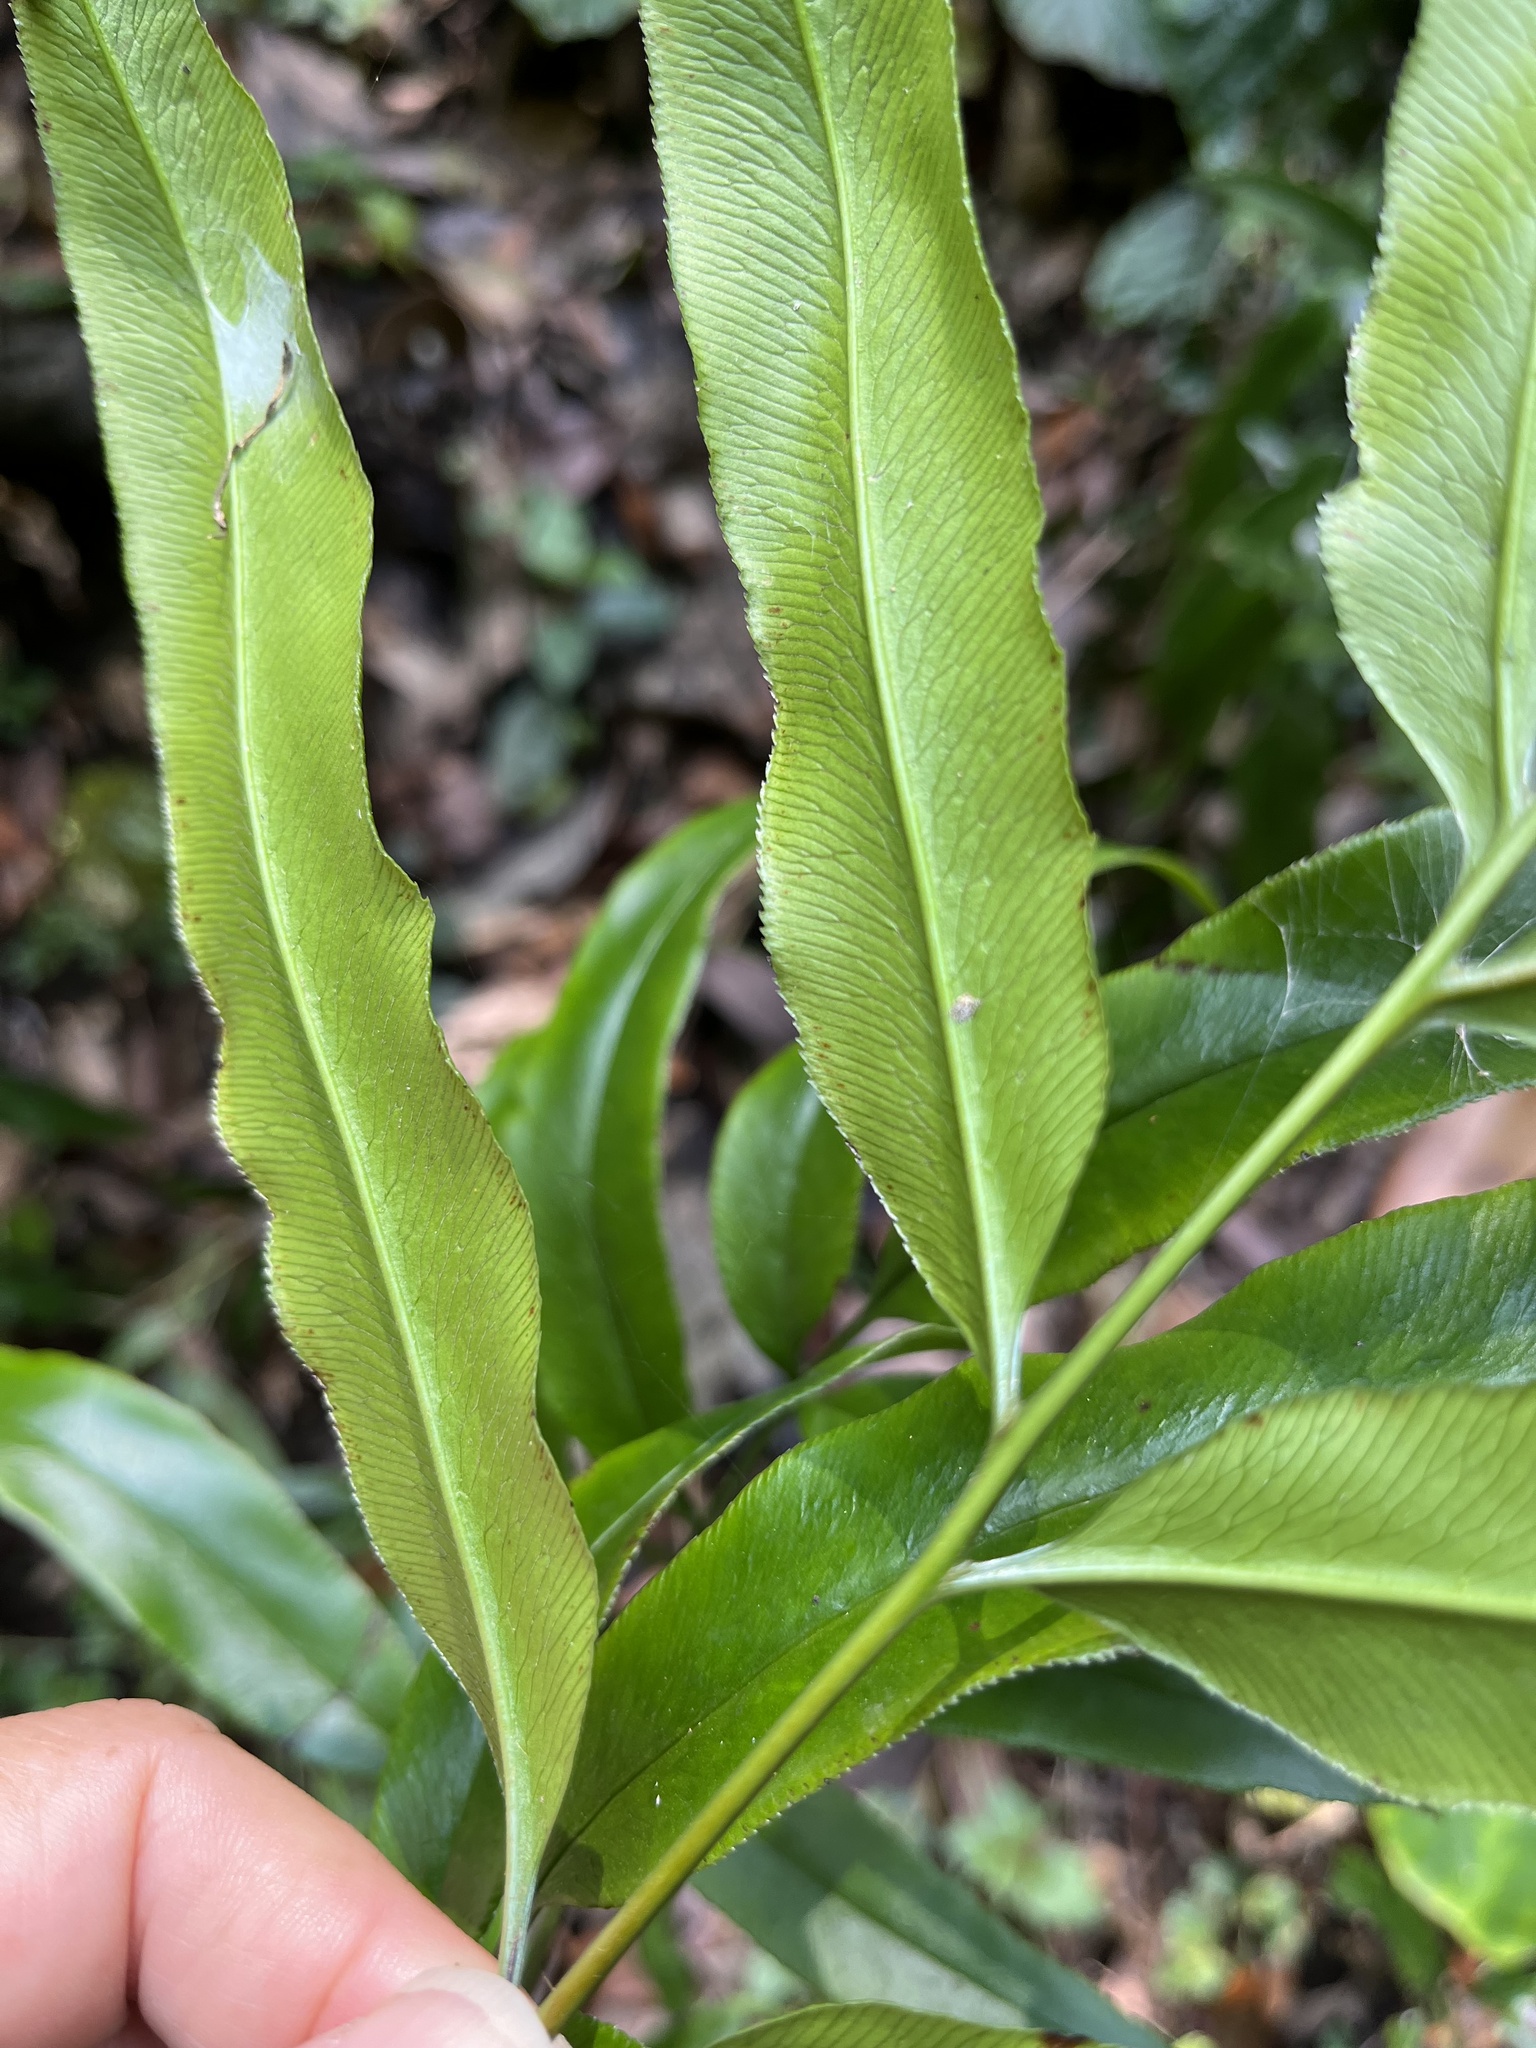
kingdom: Plantae
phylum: Tracheophyta
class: Polypodiopsida
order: Polypodiales
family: Pteridaceae
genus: Coniogramme
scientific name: Coniogramme japonica
